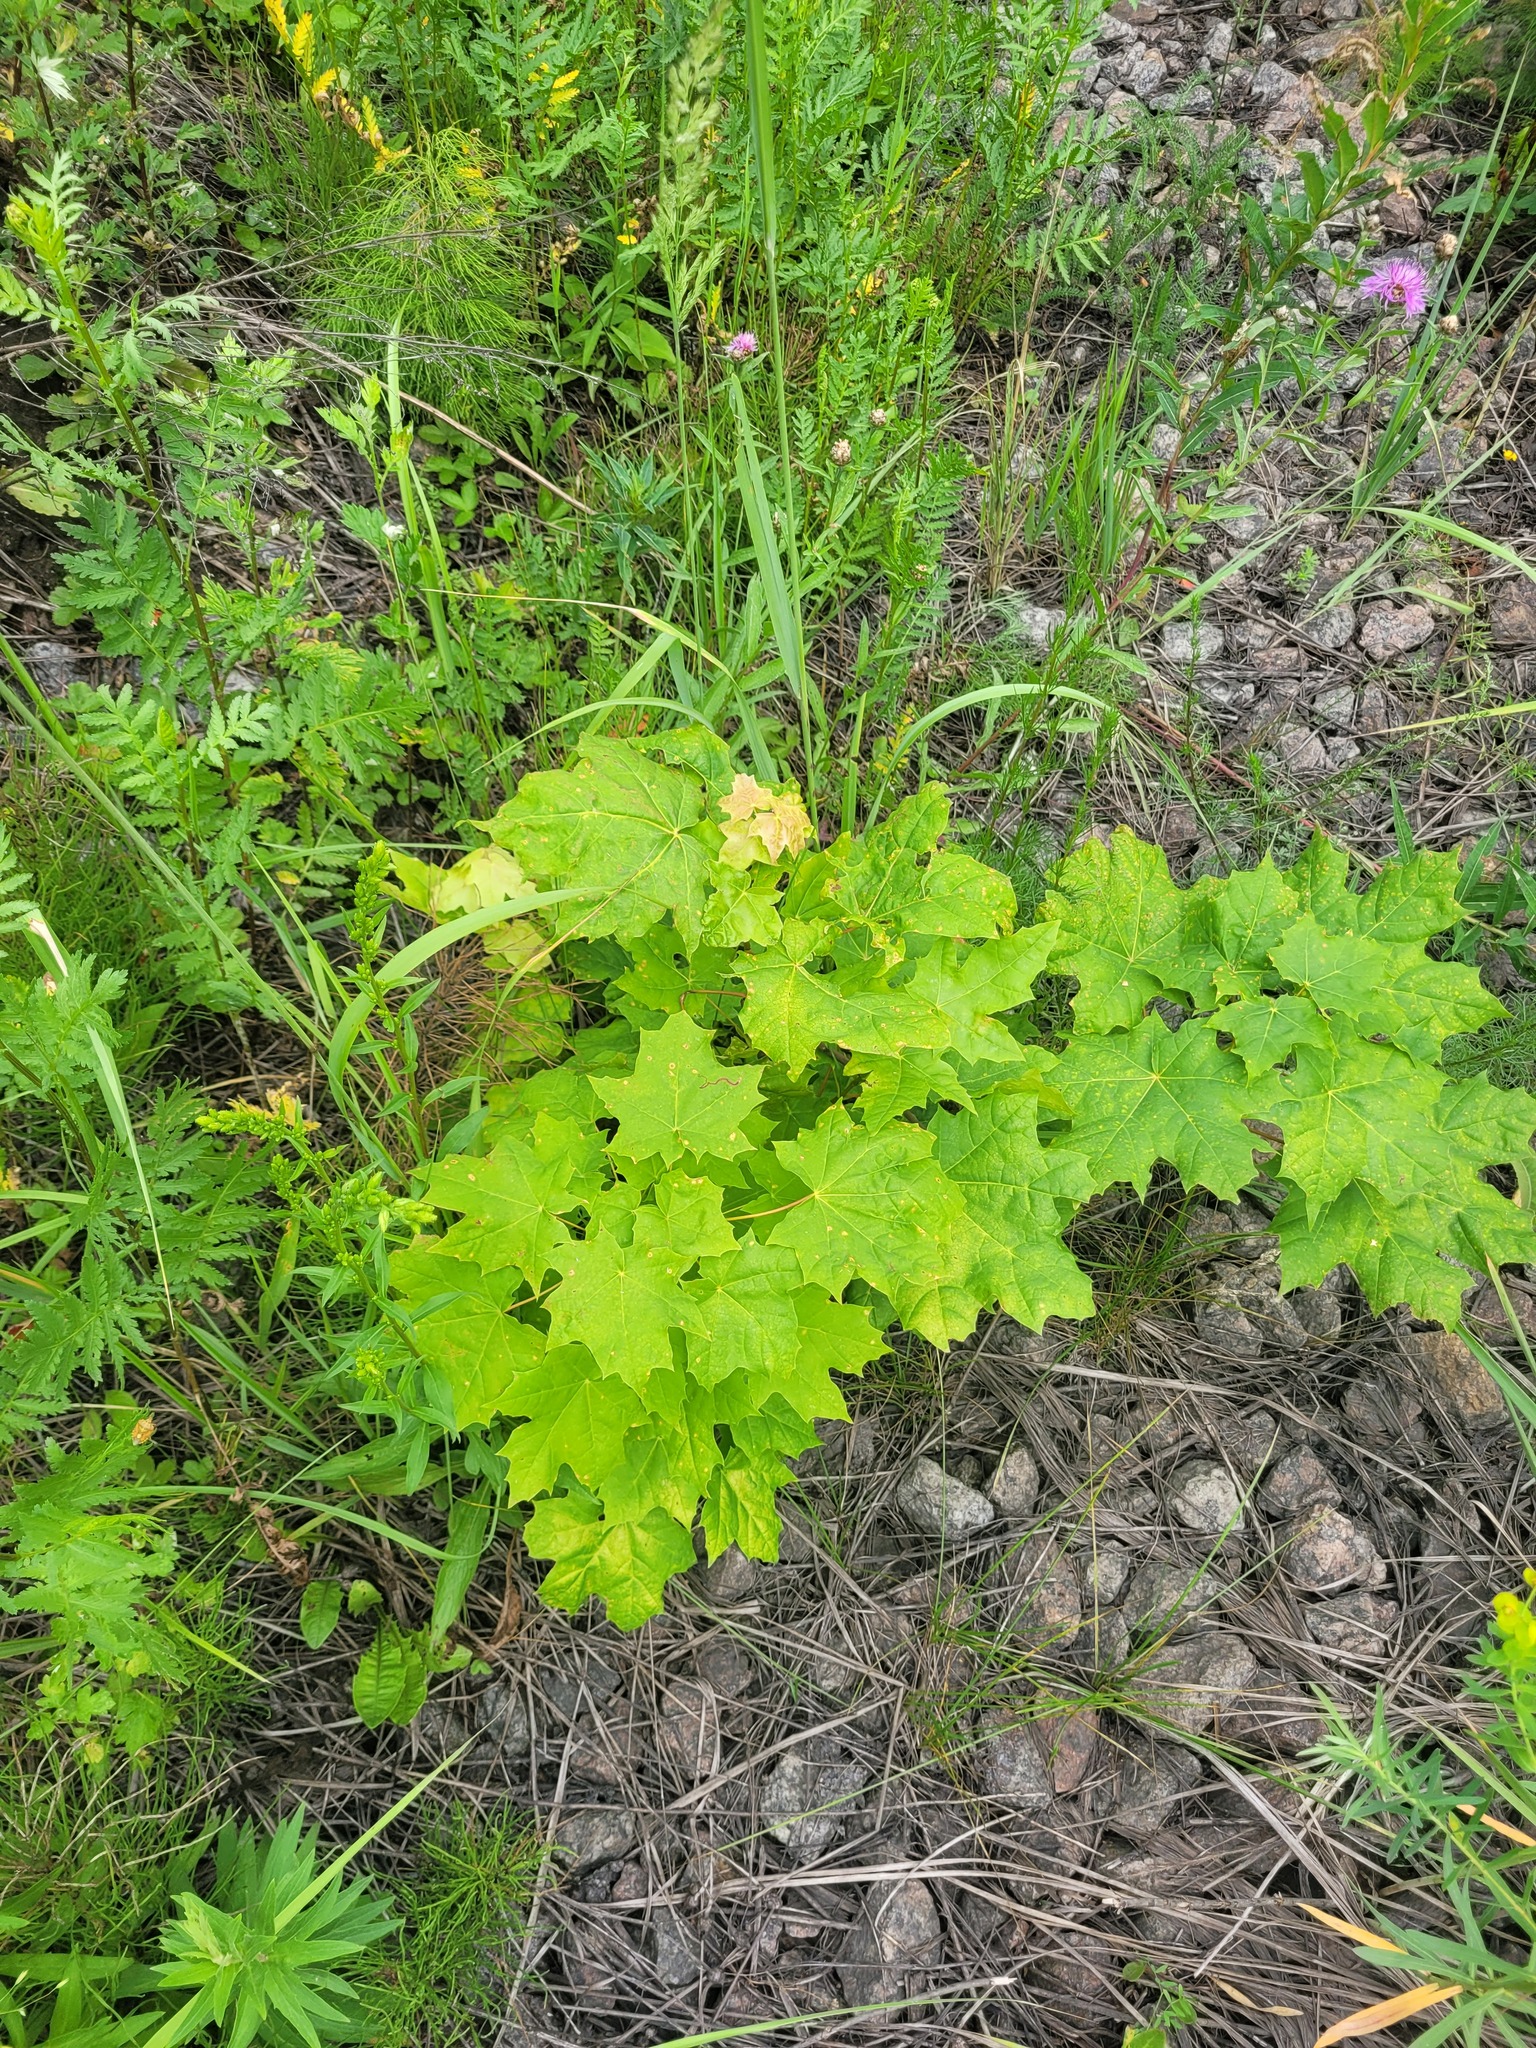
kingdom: Plantae
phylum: Tracheophyta
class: Magnoliopsida
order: Sapindales
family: Sapindaceae
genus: Acer
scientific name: Acer platanoides
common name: Norway maple
